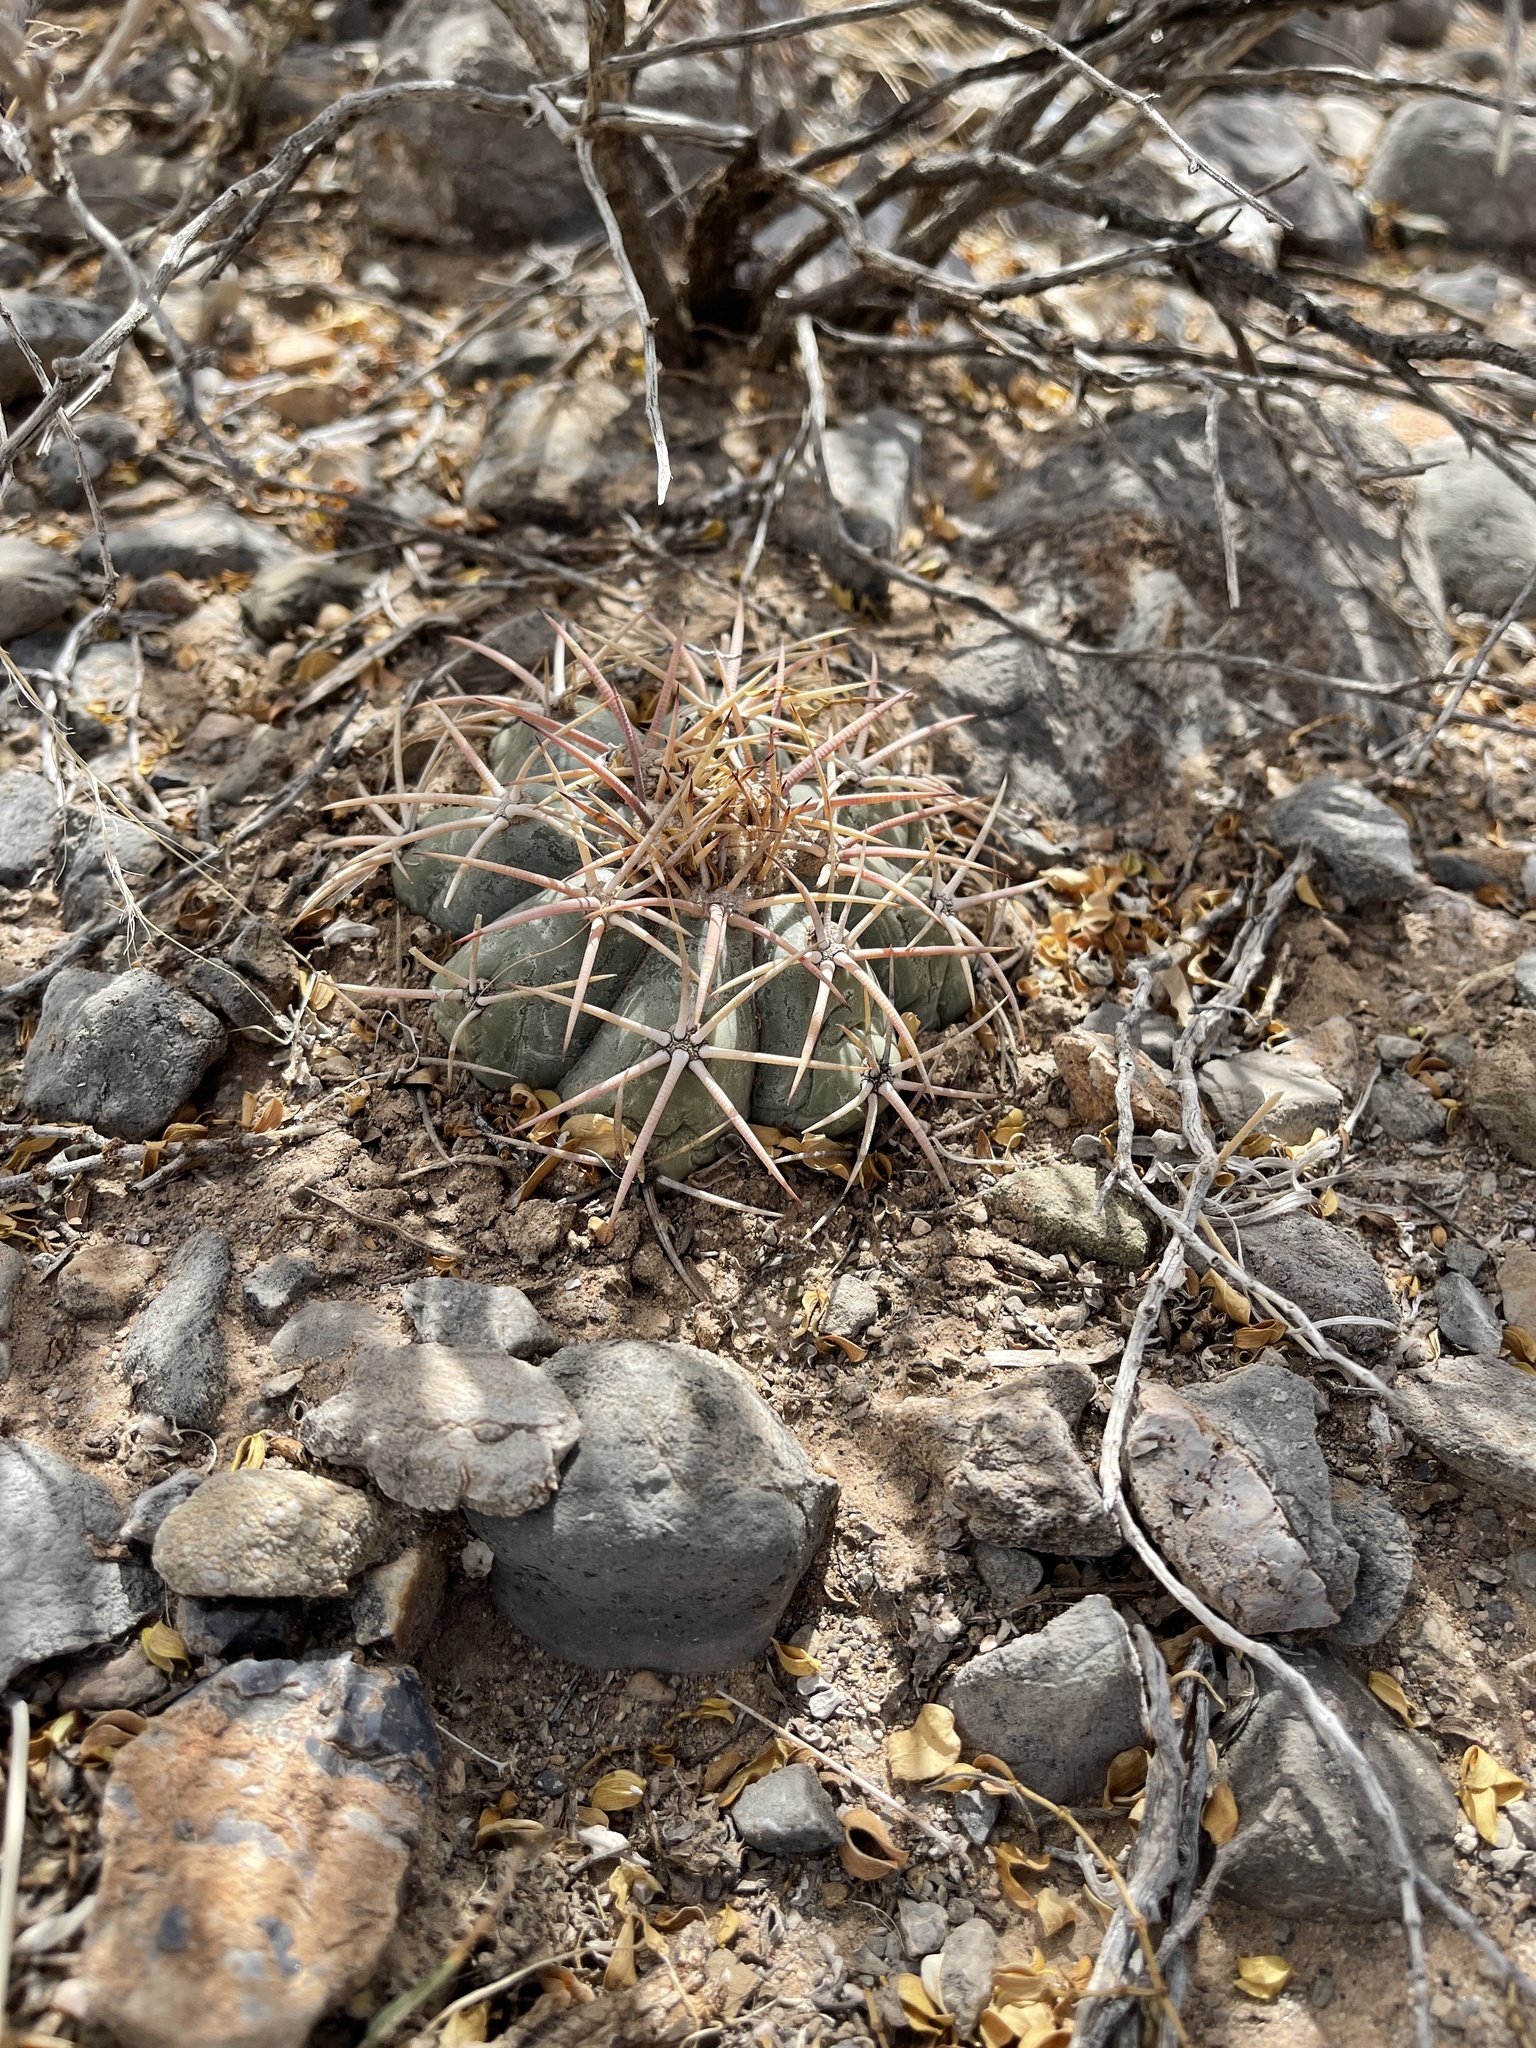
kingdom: Plantae
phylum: Tracheophyta
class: Magnoliopsida
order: Caryophyllales
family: Cactaceae
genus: Echinocactus
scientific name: Echinocactus horizonthalonius
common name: Devilshead
